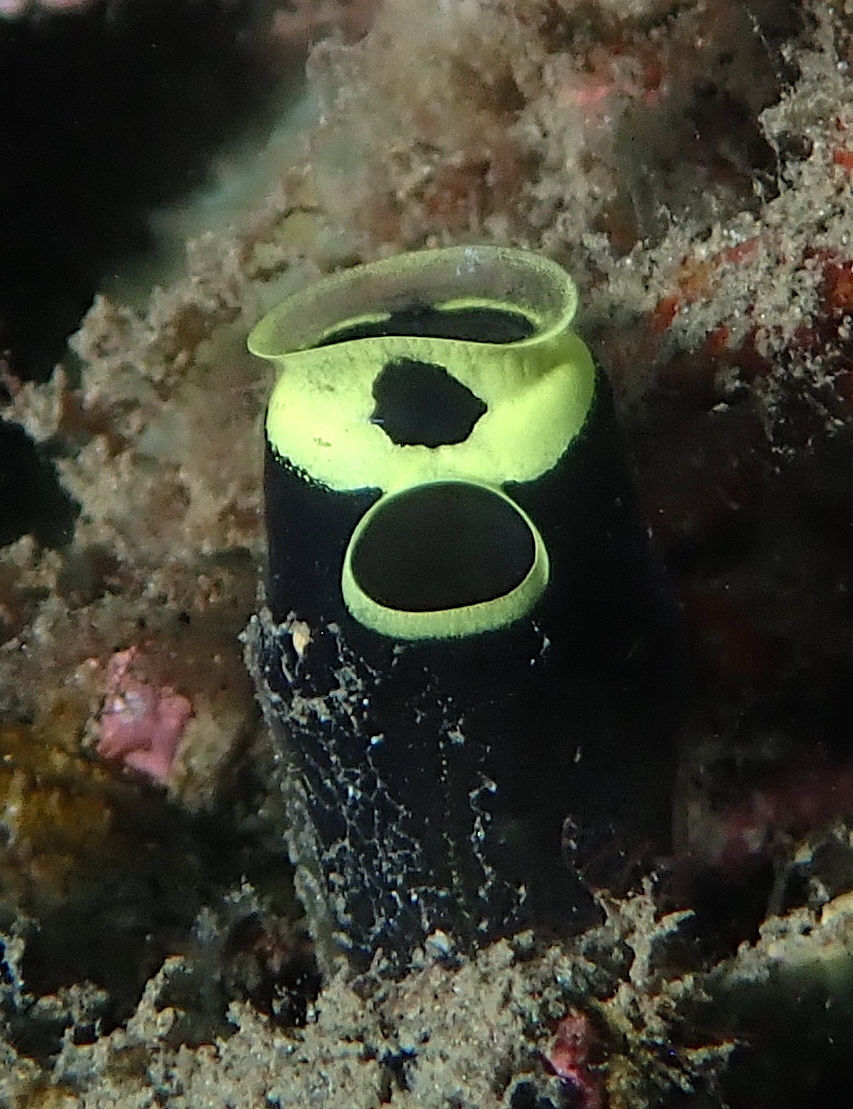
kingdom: Animalia
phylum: Chordata
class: Ascidiacea
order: Aplousobranchia
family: Clavelinidae
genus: Clavelina
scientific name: Clavelina robusta
